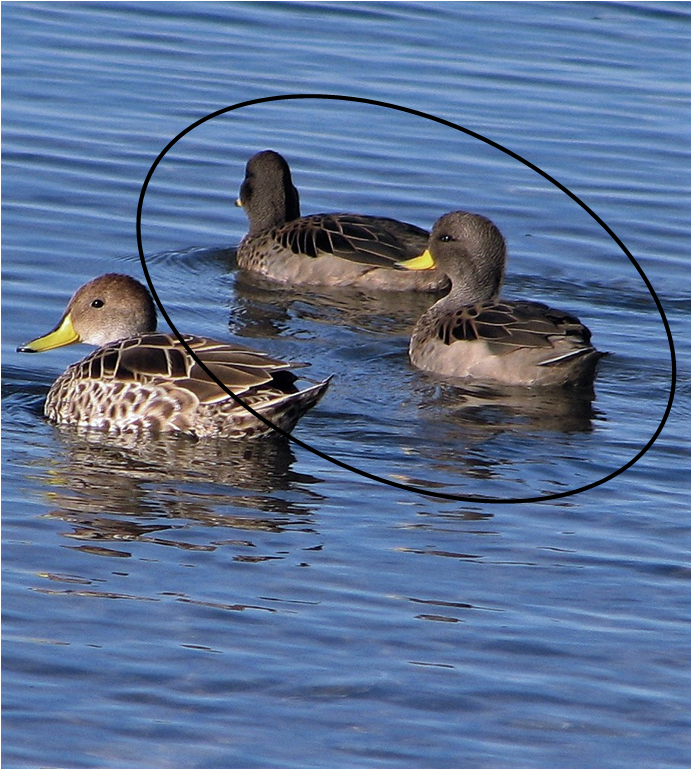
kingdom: Animalia
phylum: Chordata
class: Aves
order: Anseriformes
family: Anatidae
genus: Anas
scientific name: Anas flavirostris
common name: Yellow-billed teal
